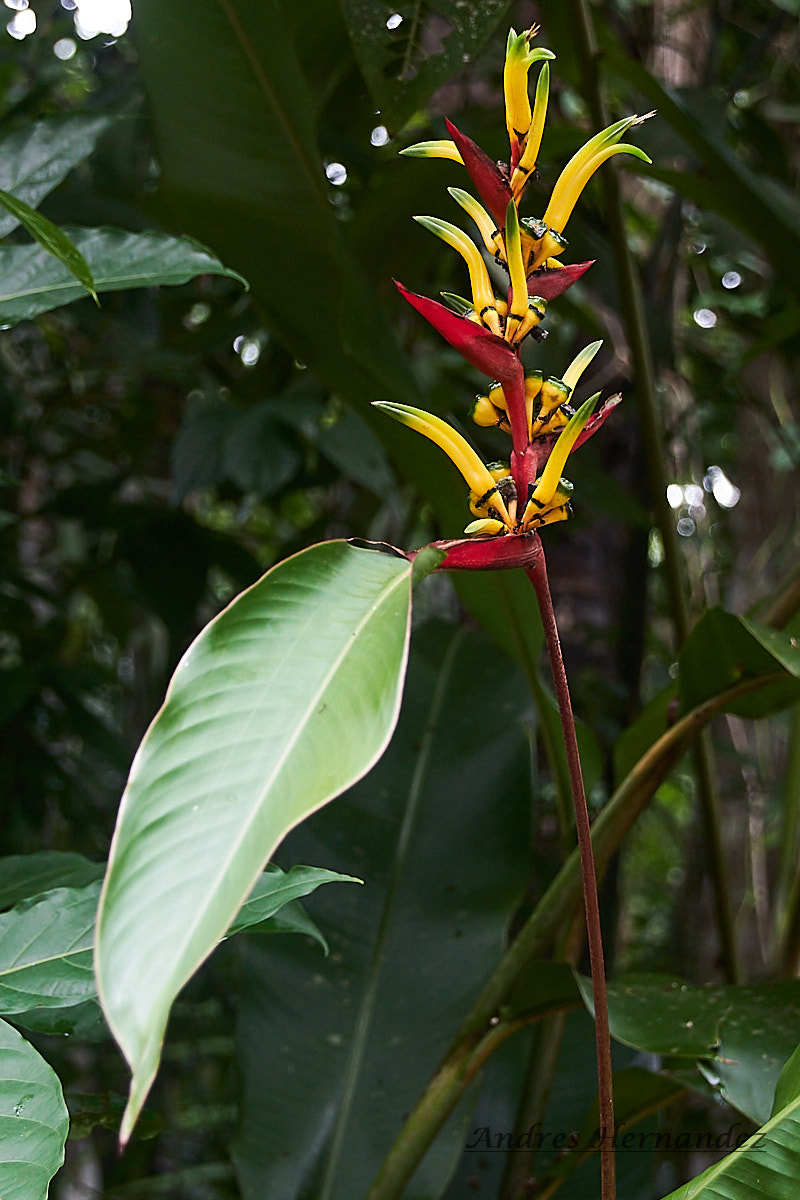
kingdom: Plantae
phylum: Tracheophyta
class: Liliopsida
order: Zingiberales
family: Heliconiaceae
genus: Heliconia
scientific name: Heliconia vaginalis
